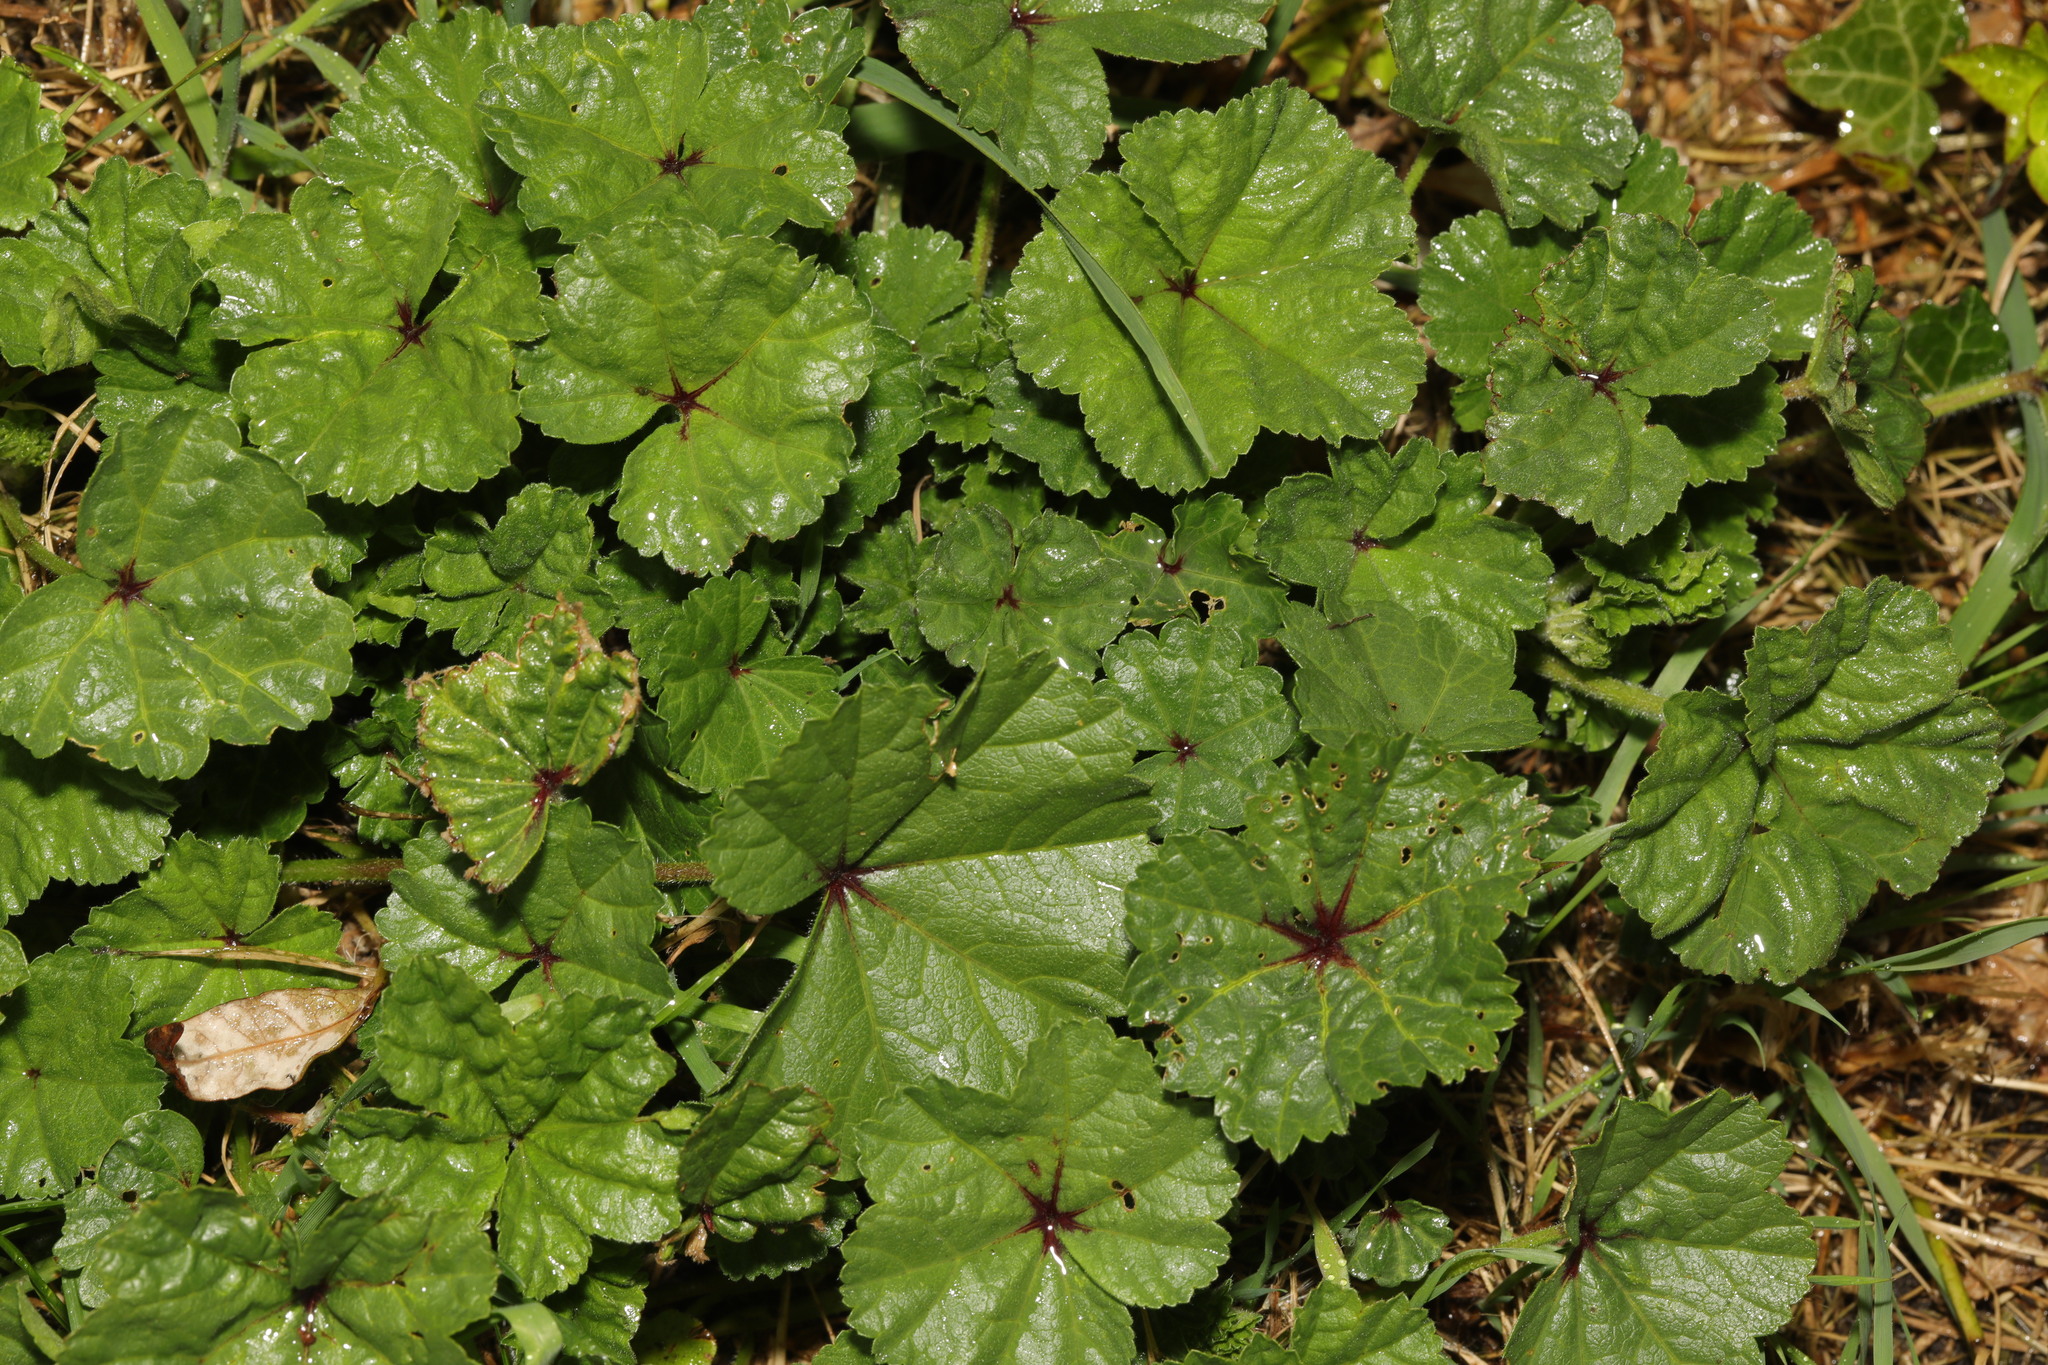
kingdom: Plantae
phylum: Tracheophyta
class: Magnoliopsida
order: Malvales
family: Malvaceae
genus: Malva
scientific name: Malva sylvestris
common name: Common mallow
